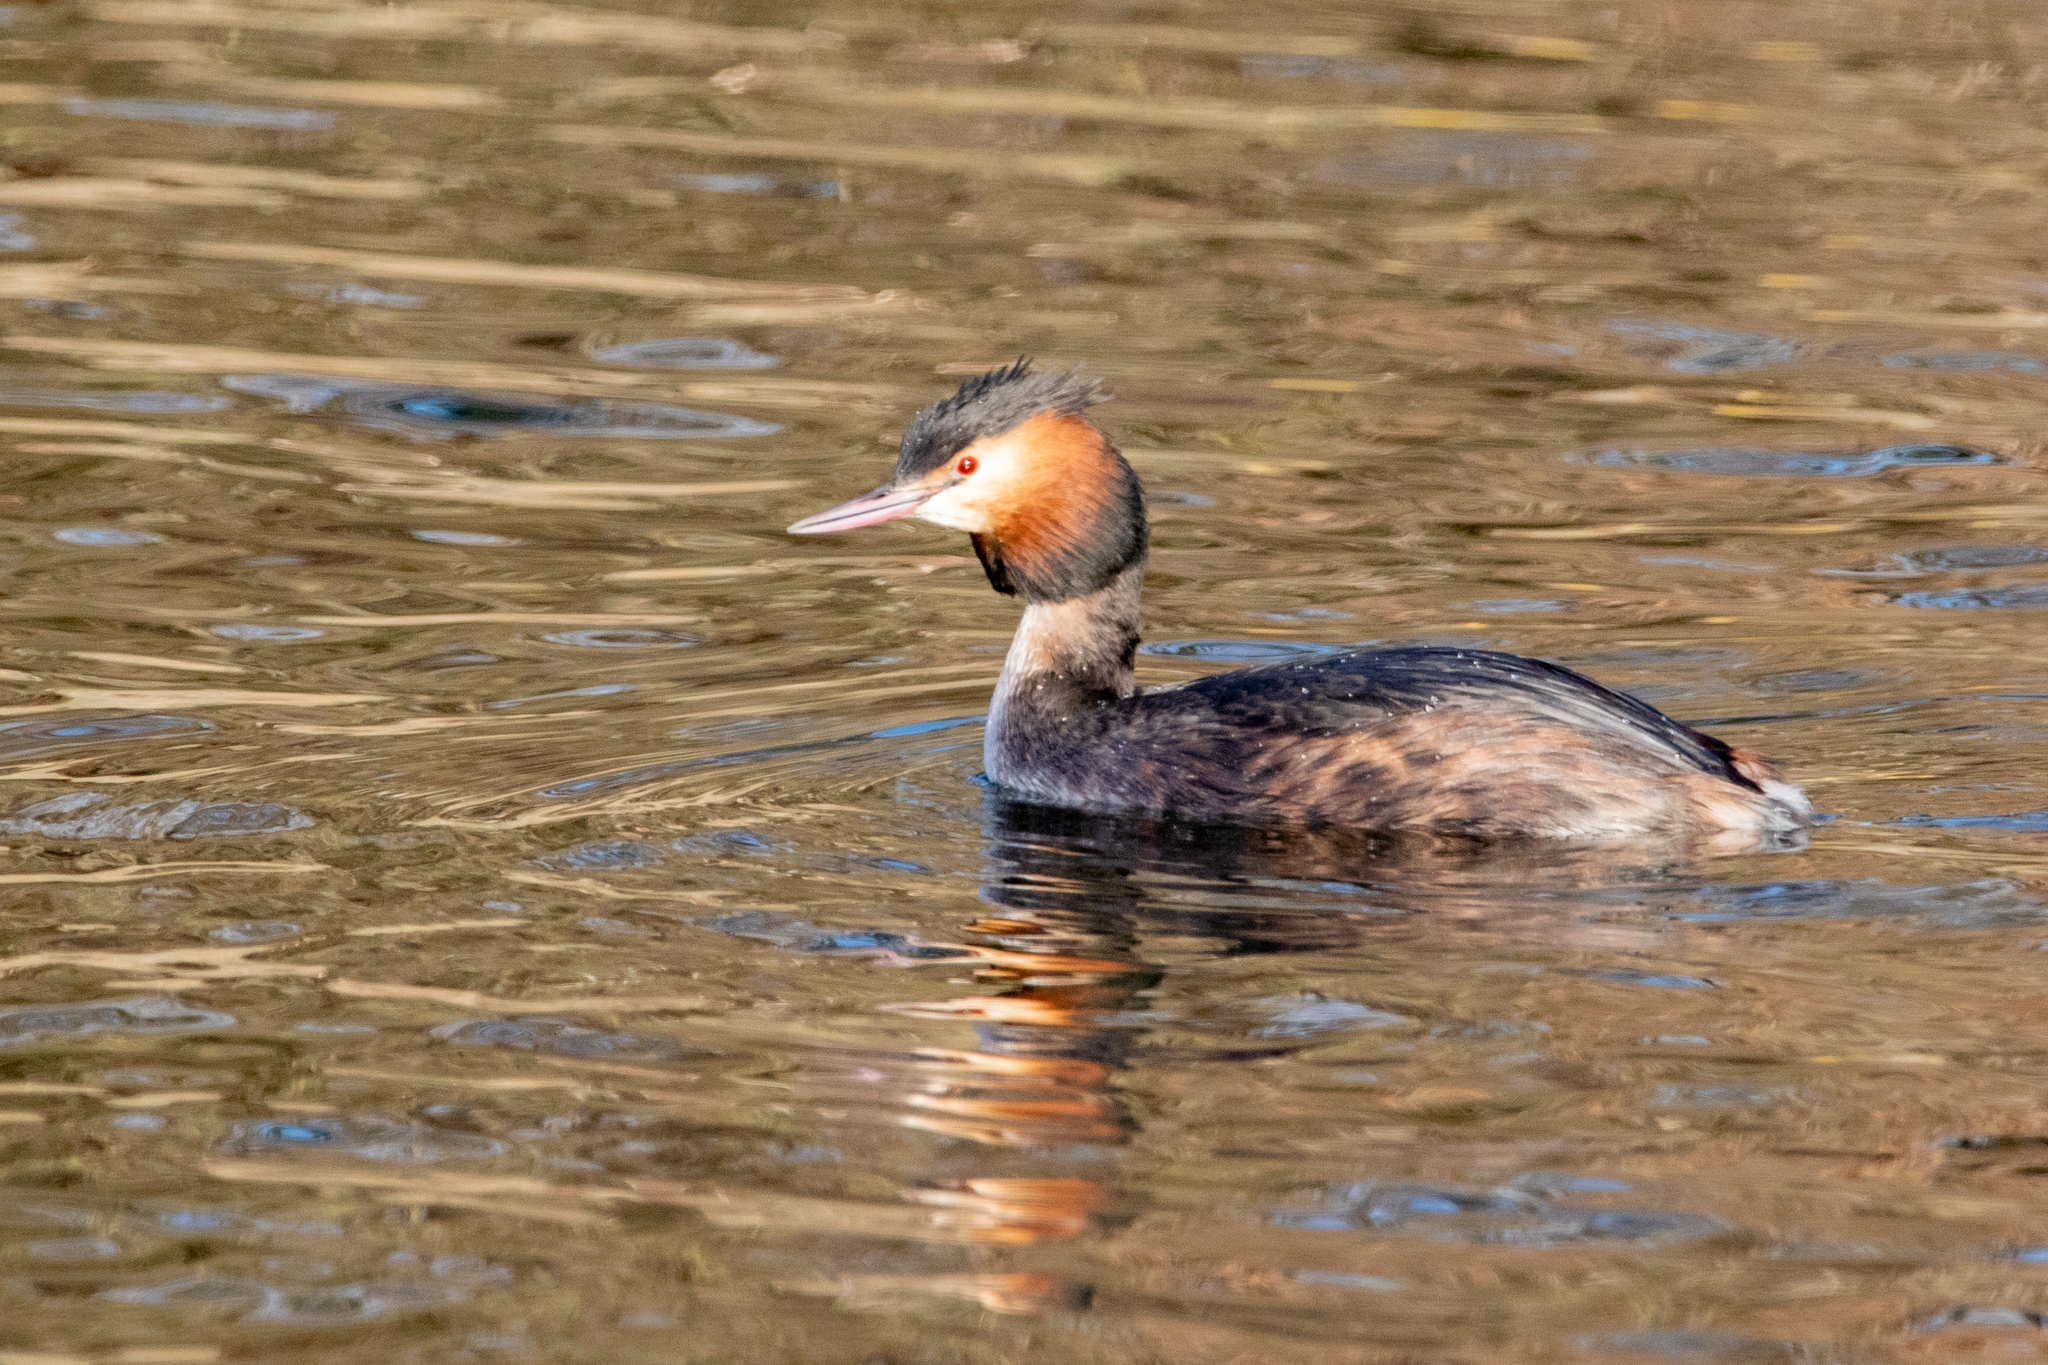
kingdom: Animalia
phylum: Chordata
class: Aves
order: Podicipediformes
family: Podicipedidae
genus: Podiceps
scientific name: Podiceps cristatus
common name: Great crested grebe
